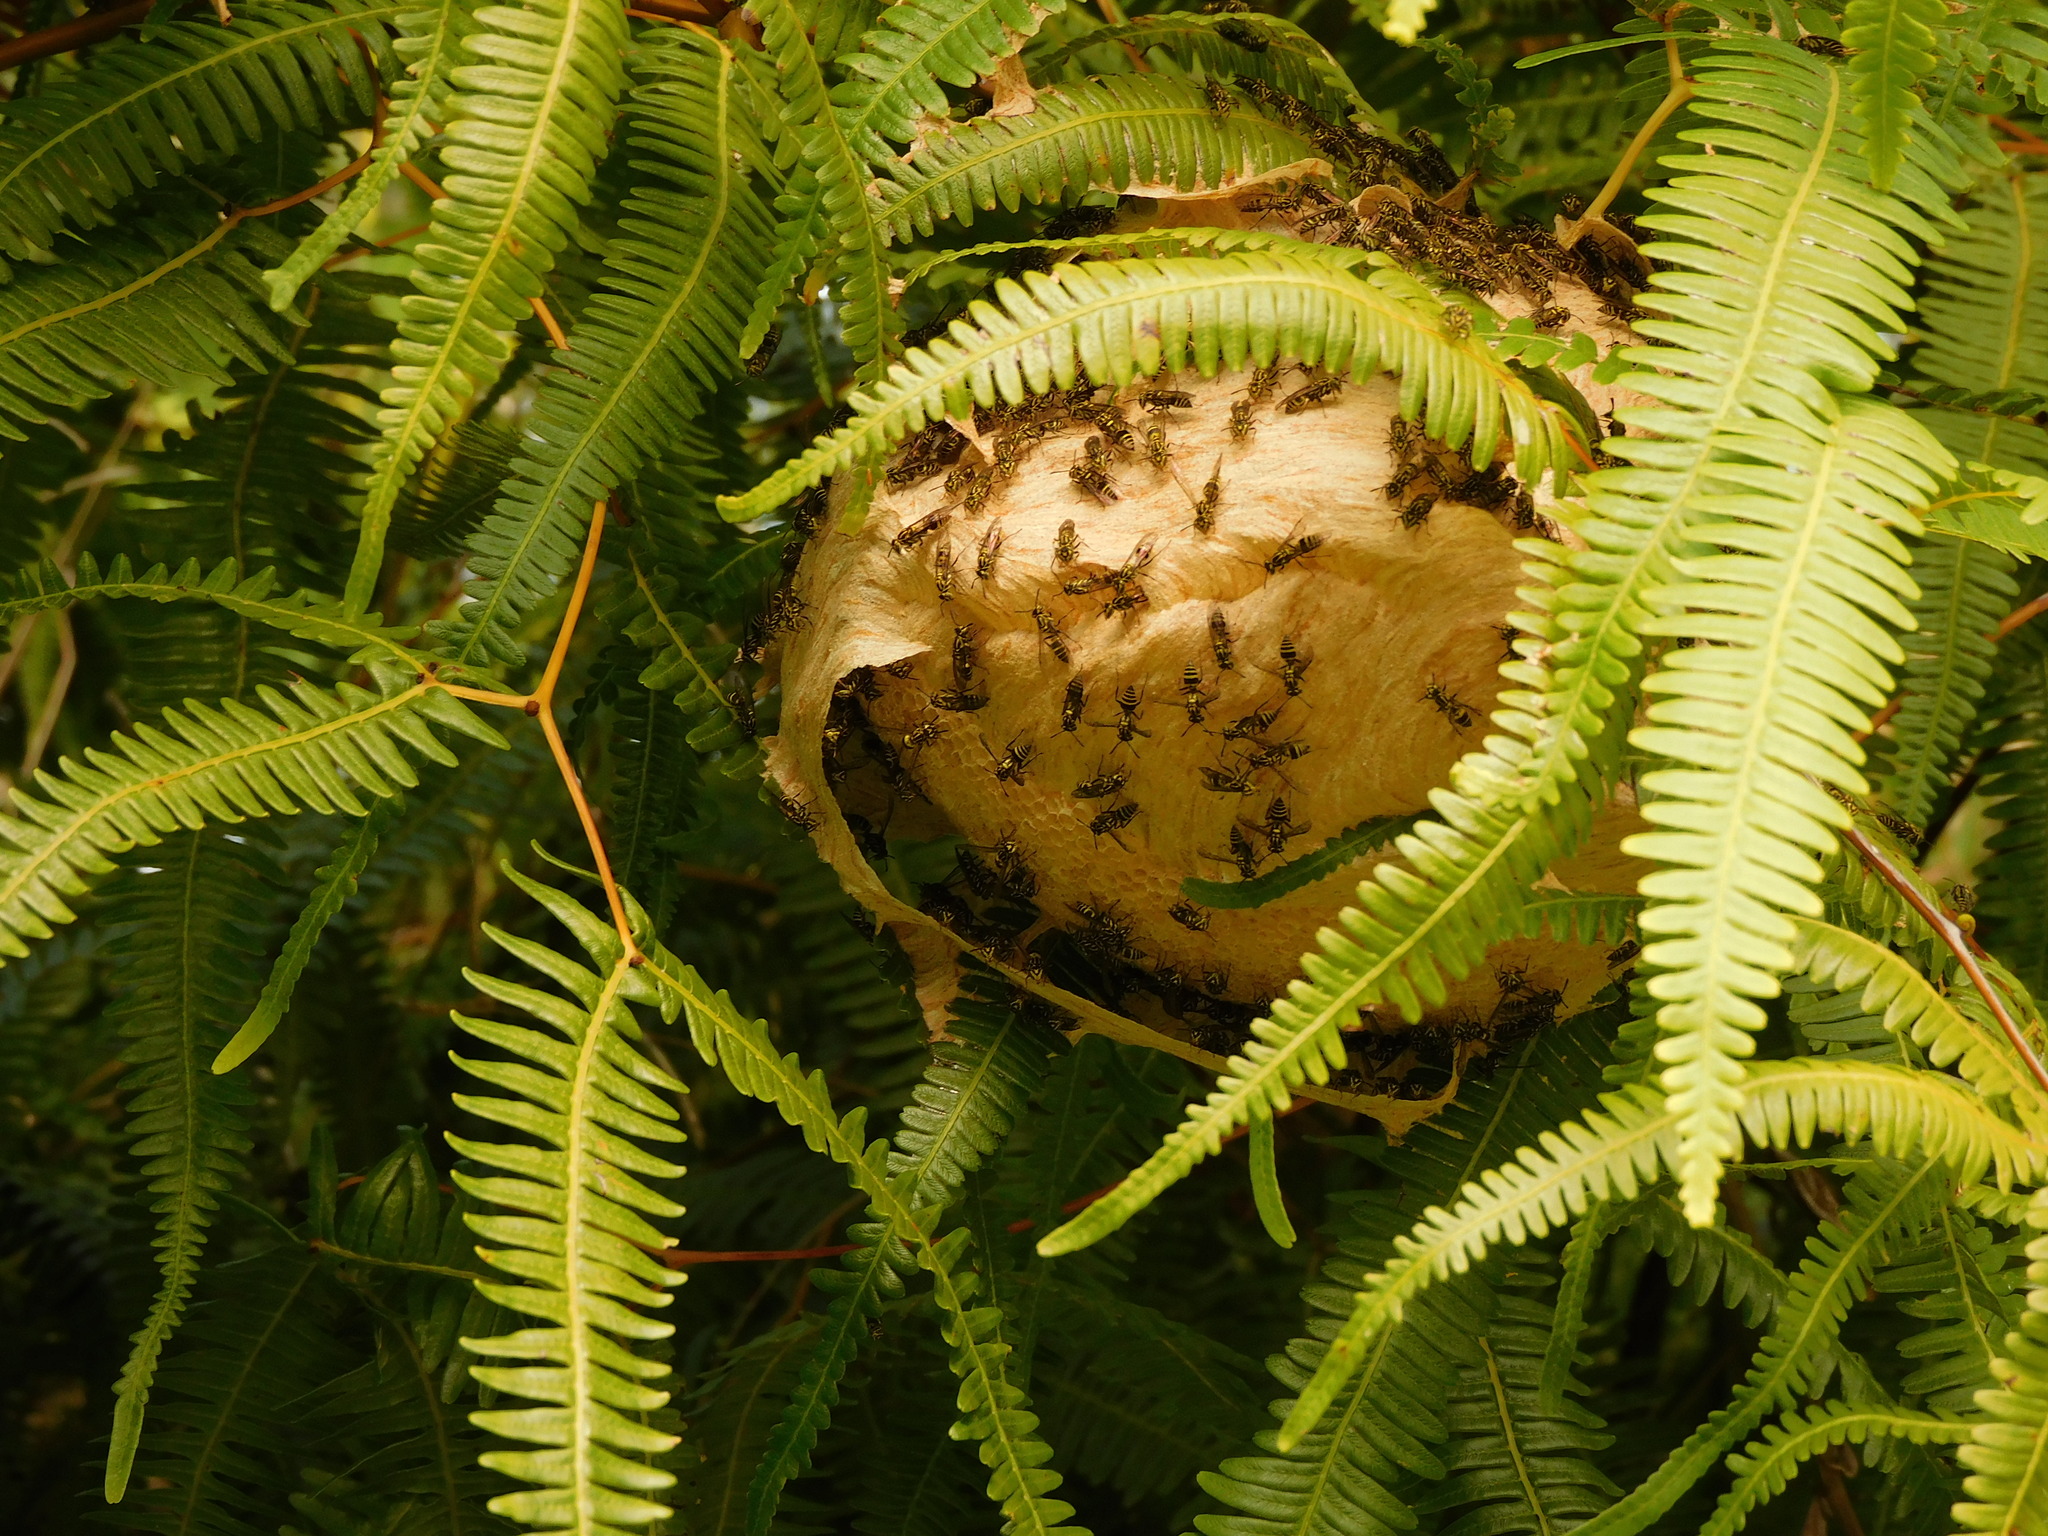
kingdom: Animalia
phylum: Arthropoda
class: Insecta
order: Hymenoptera
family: Vespidae
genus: Protopolybia
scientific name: Protopolybia sedula
